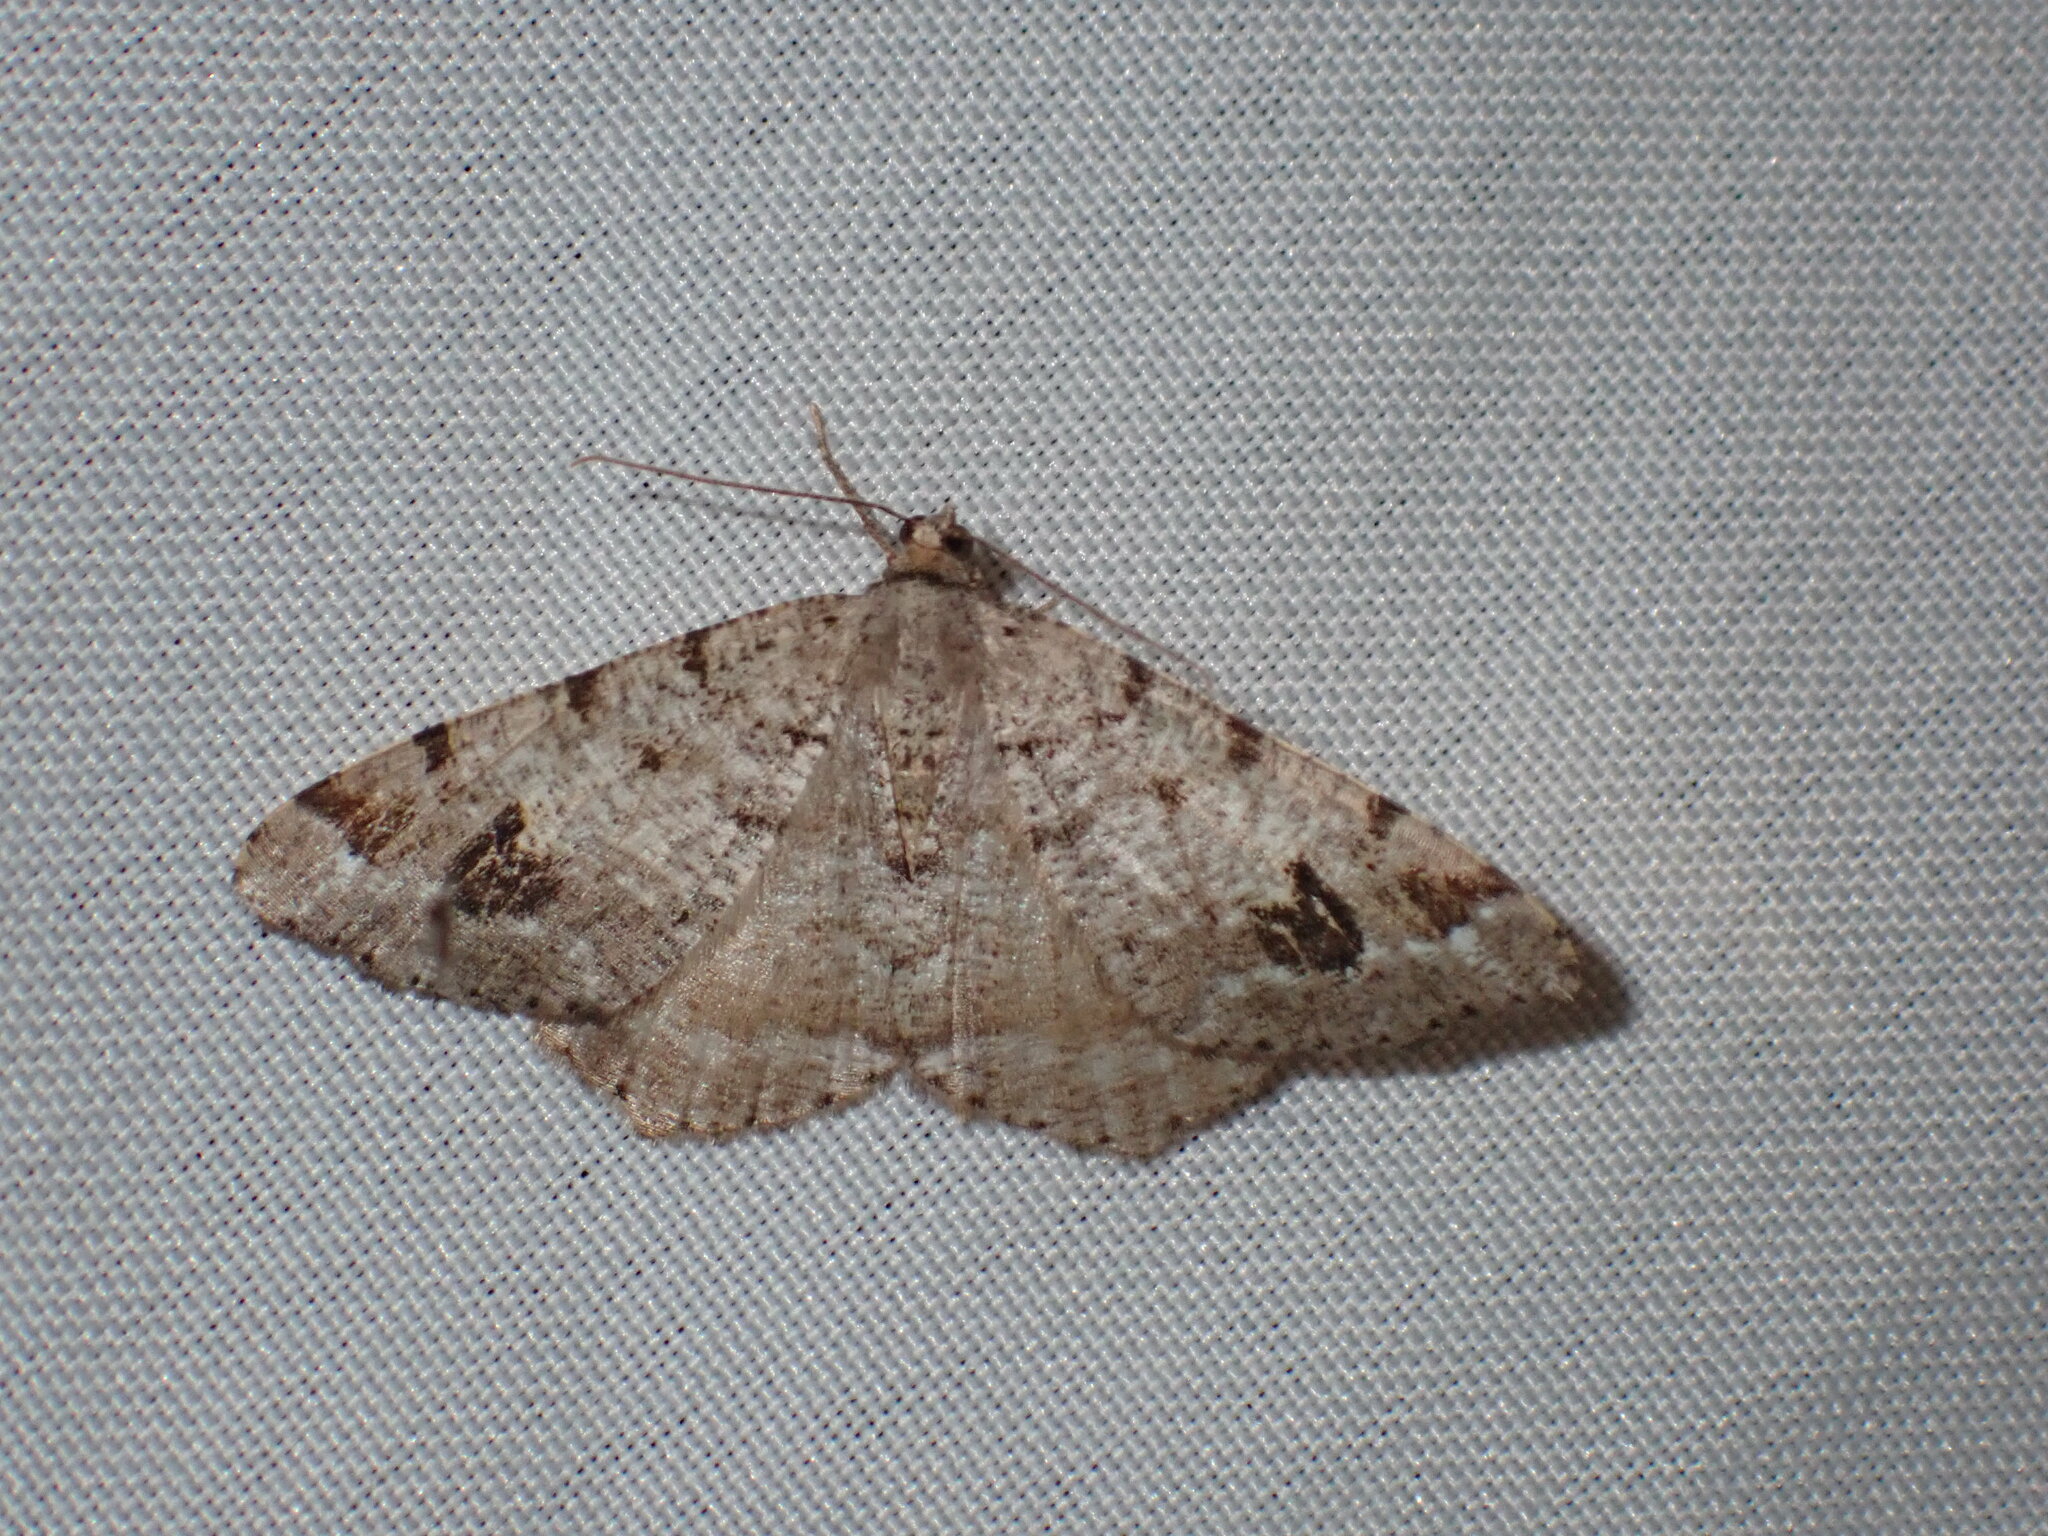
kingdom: Animalia
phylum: Arthropoda
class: Insecta
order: Lepidoptera
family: Geometridae
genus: Macaria
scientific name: Macaria signaria
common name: Dusky peacock
